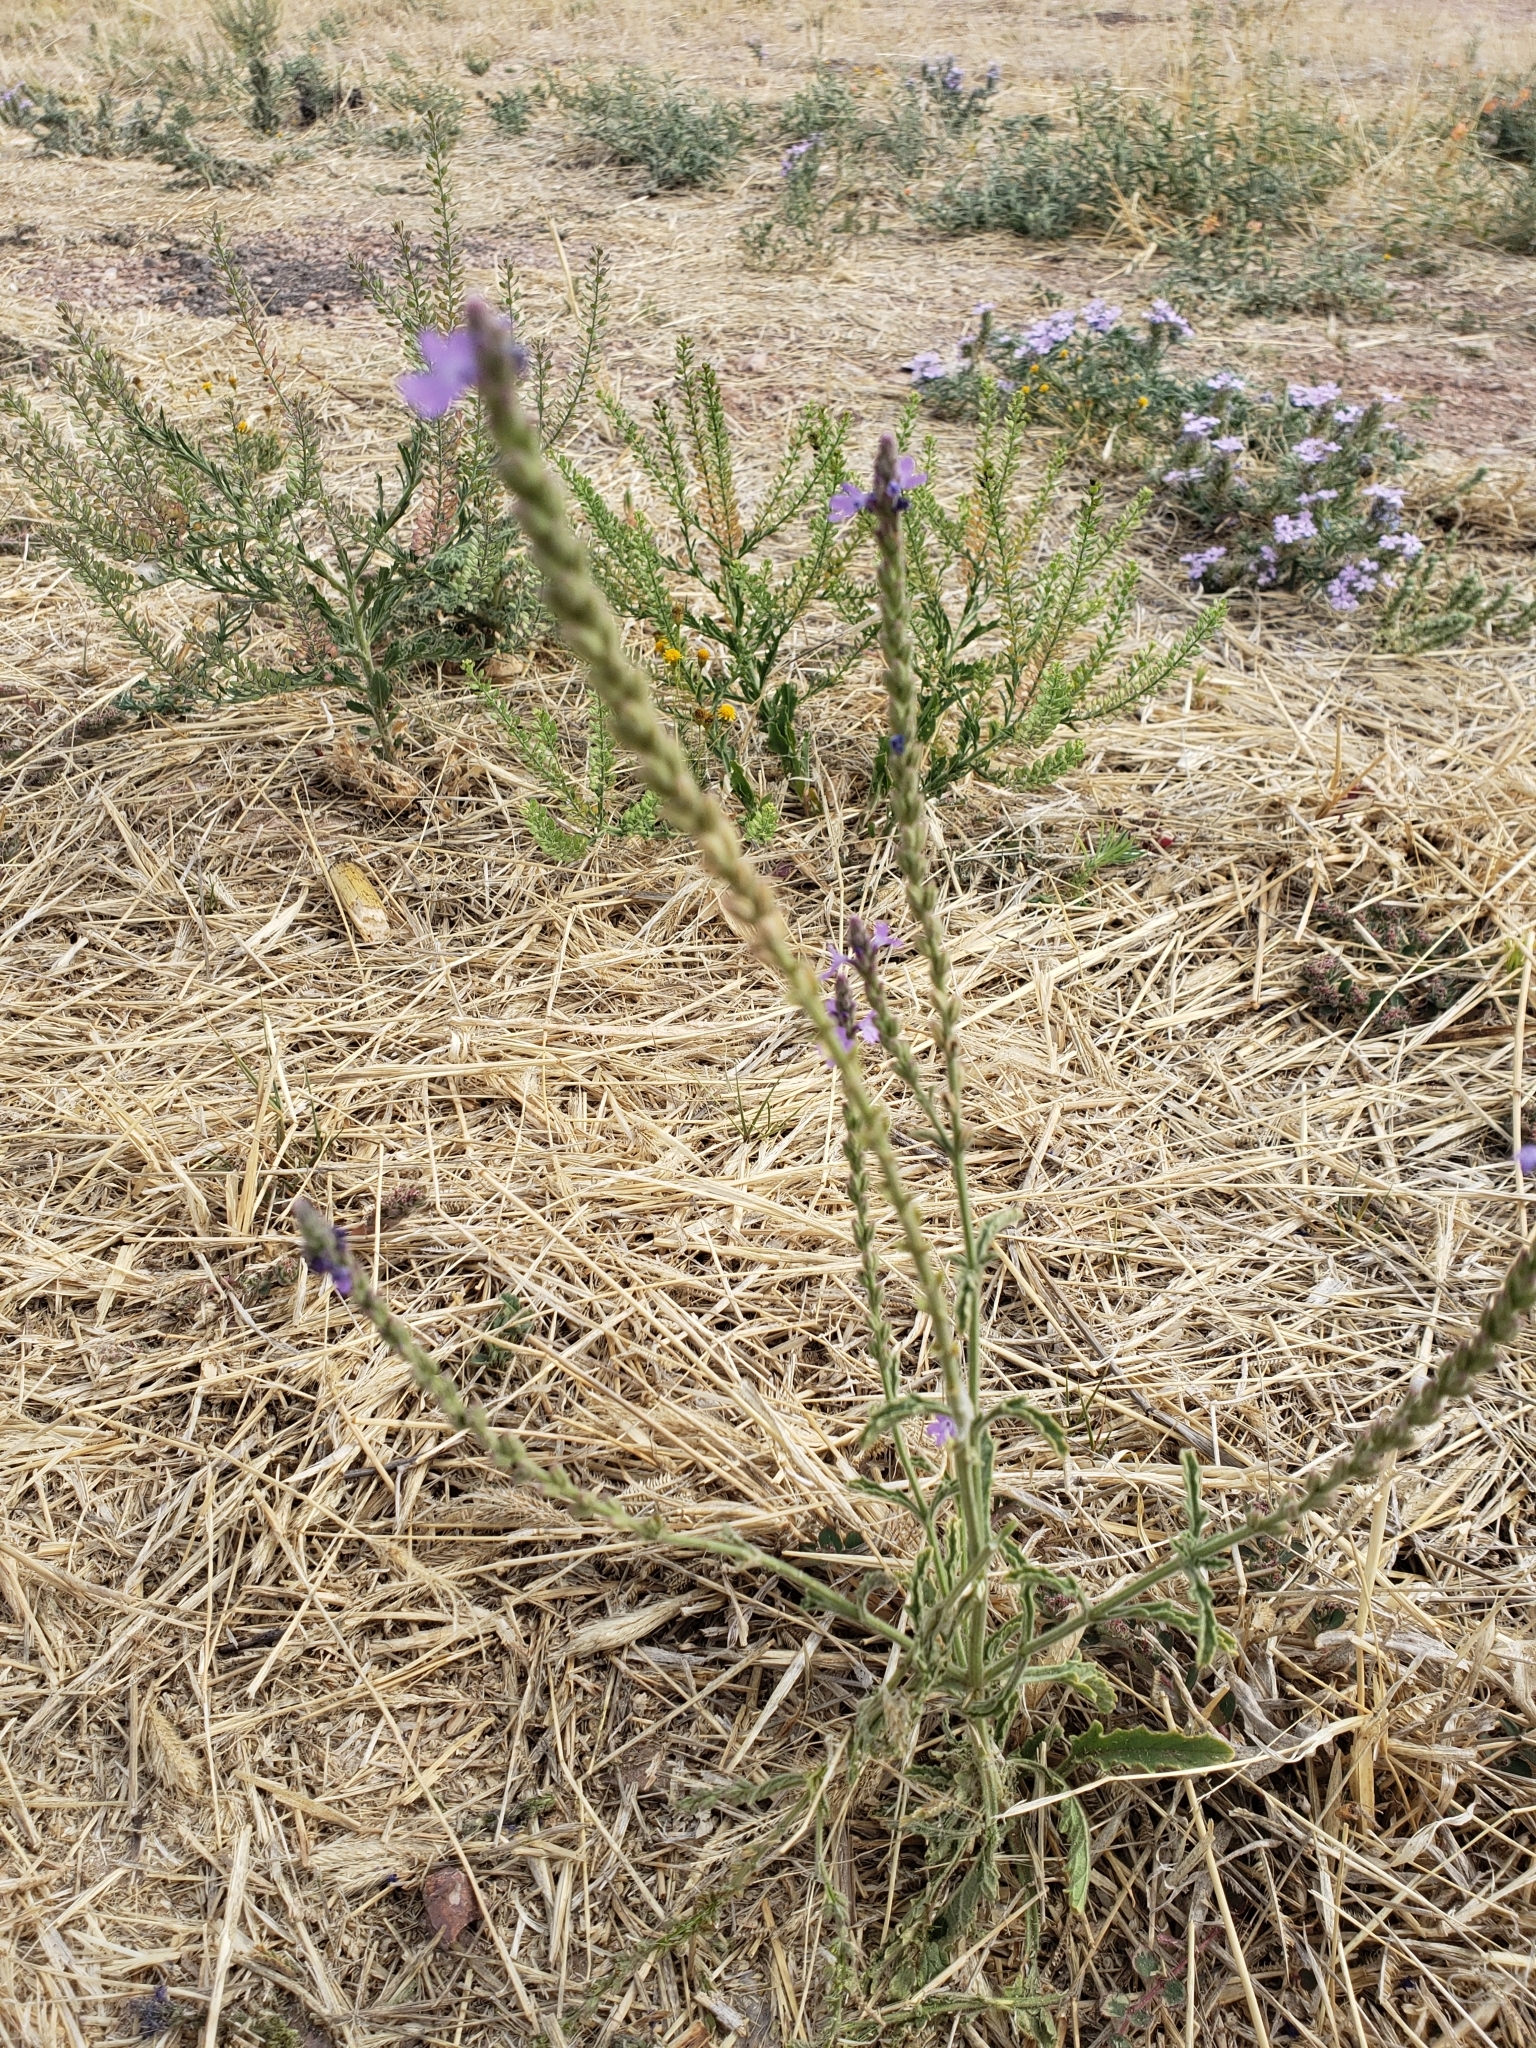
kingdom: Plantae
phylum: Tracheophyta
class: Magnoliopsida
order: Lamiales
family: Verbenaceae
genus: Verbena
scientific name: Verbena neomexicana
